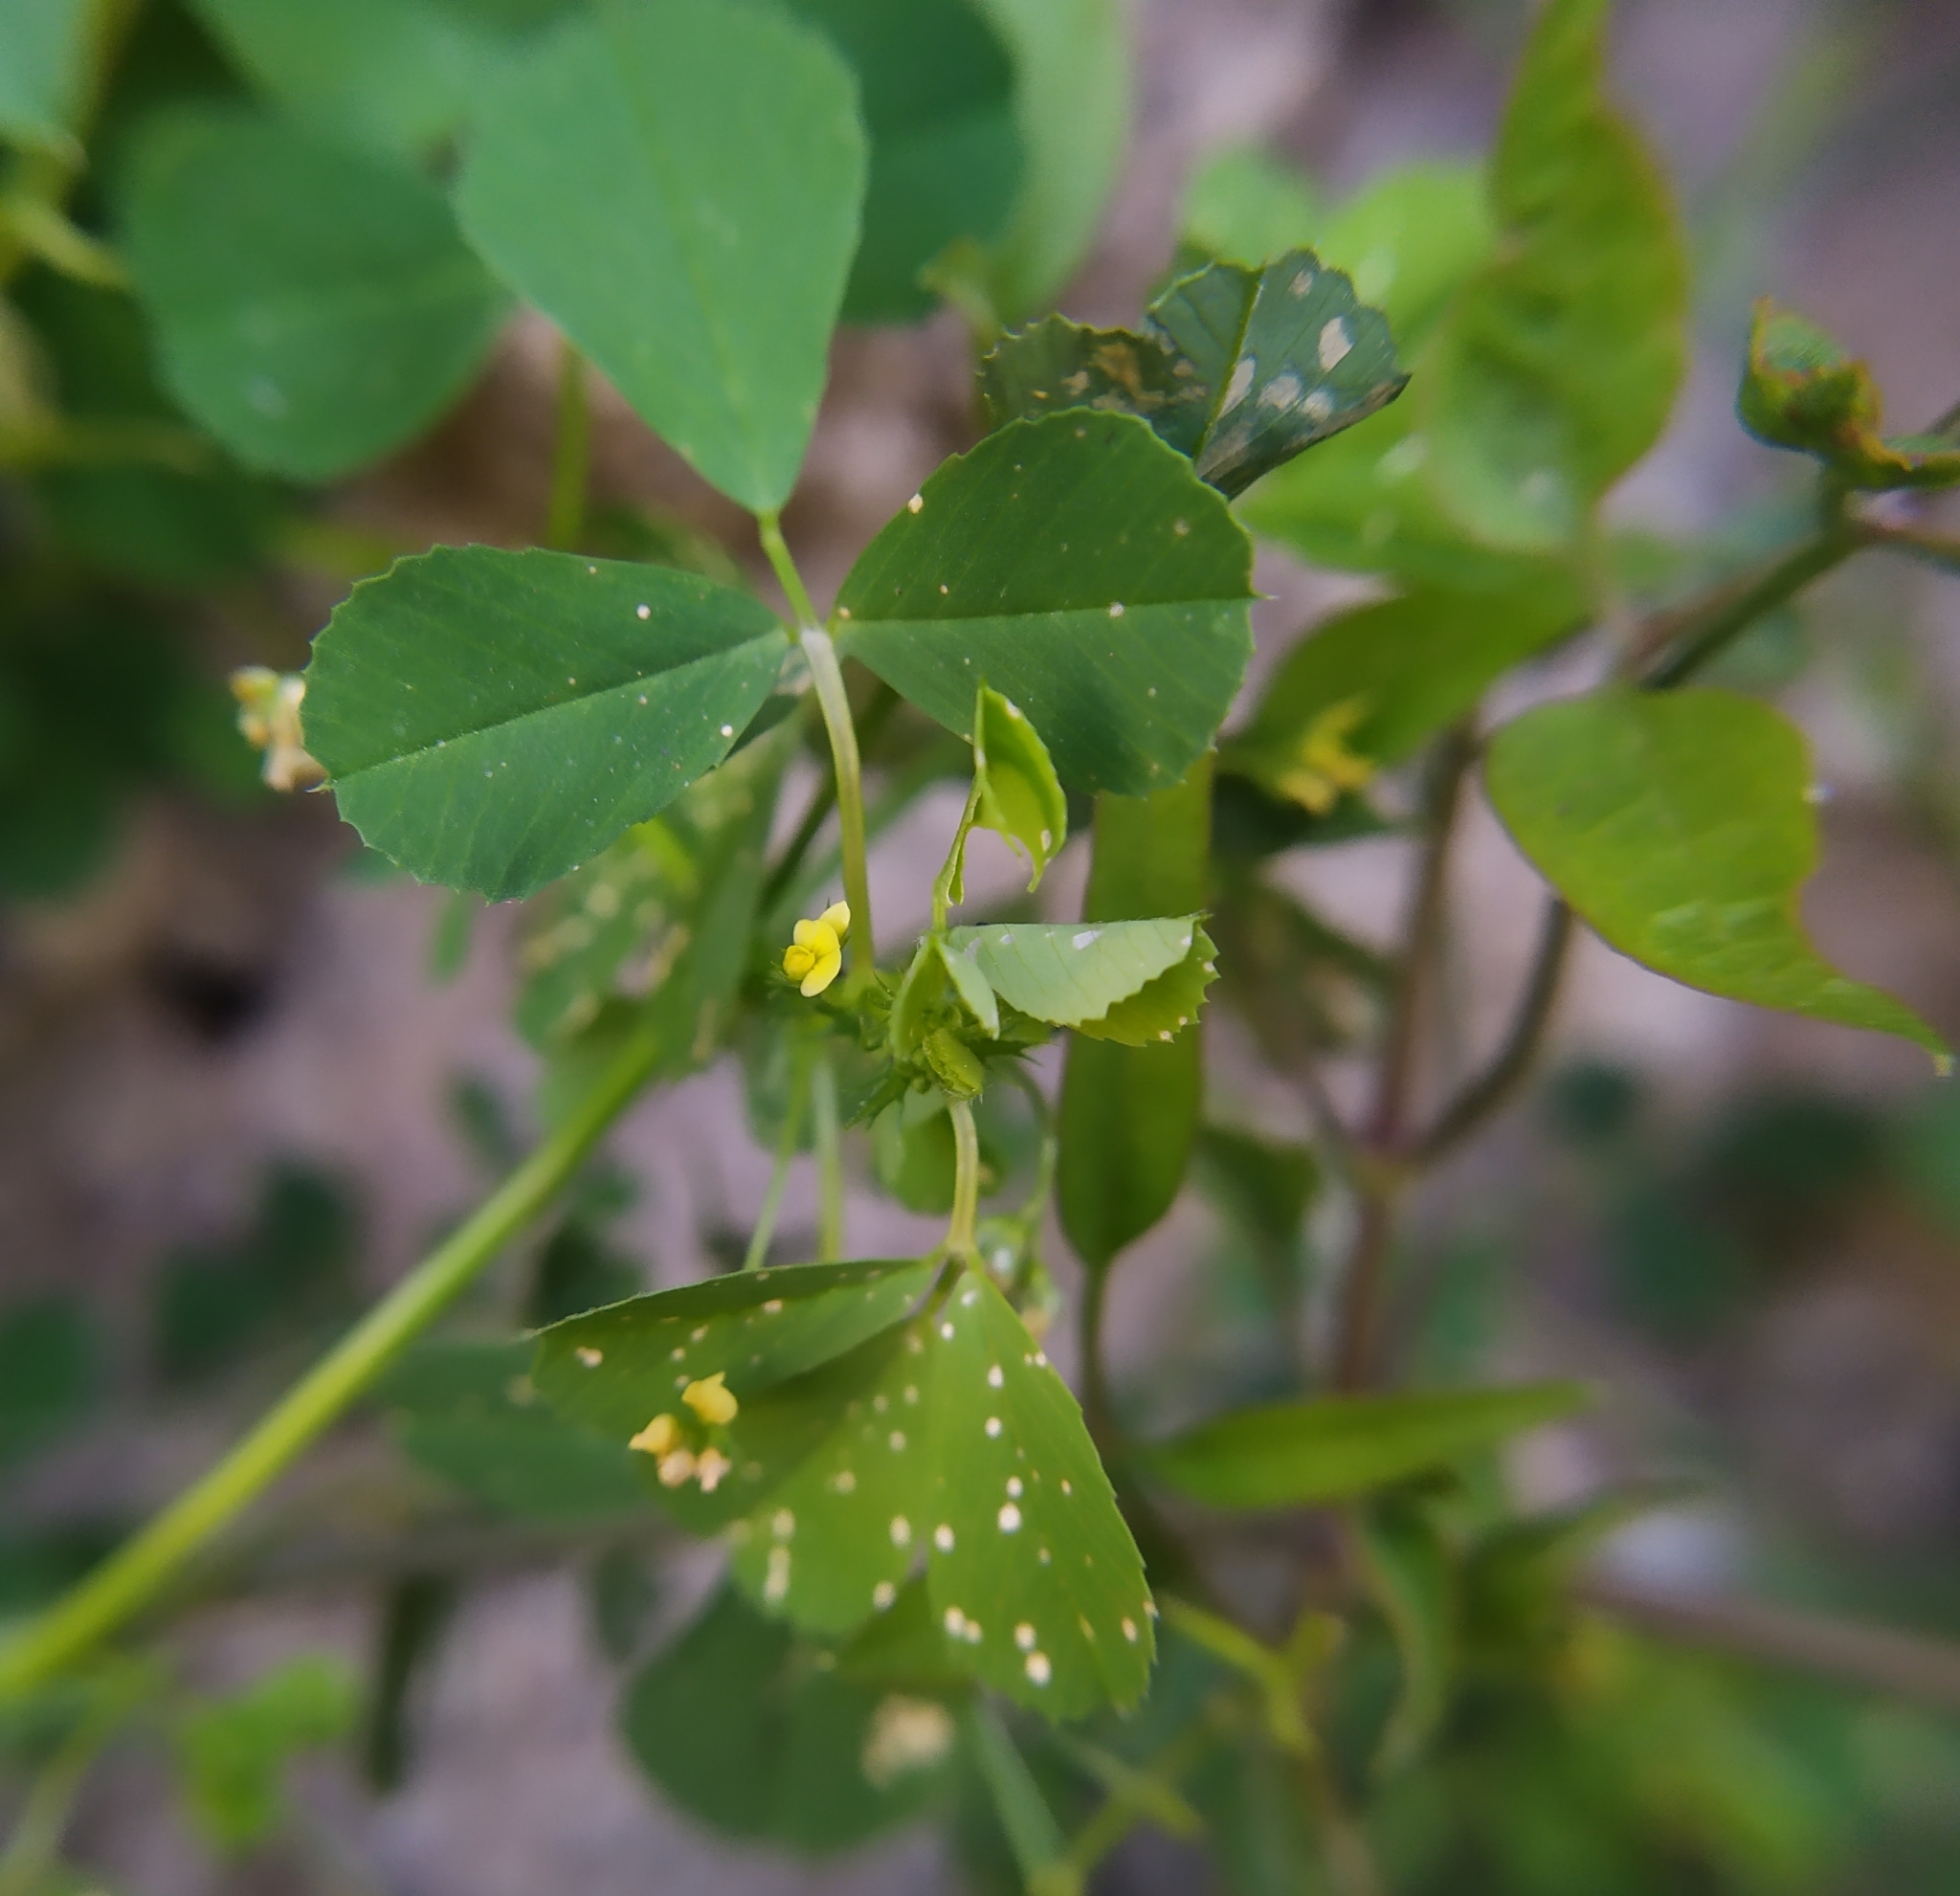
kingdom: Plantae
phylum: Tracheophyta
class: Magnoliopsida
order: Fabales
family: Fabaceae
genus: Medicago
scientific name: Medicago polymorpha
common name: Burclover
